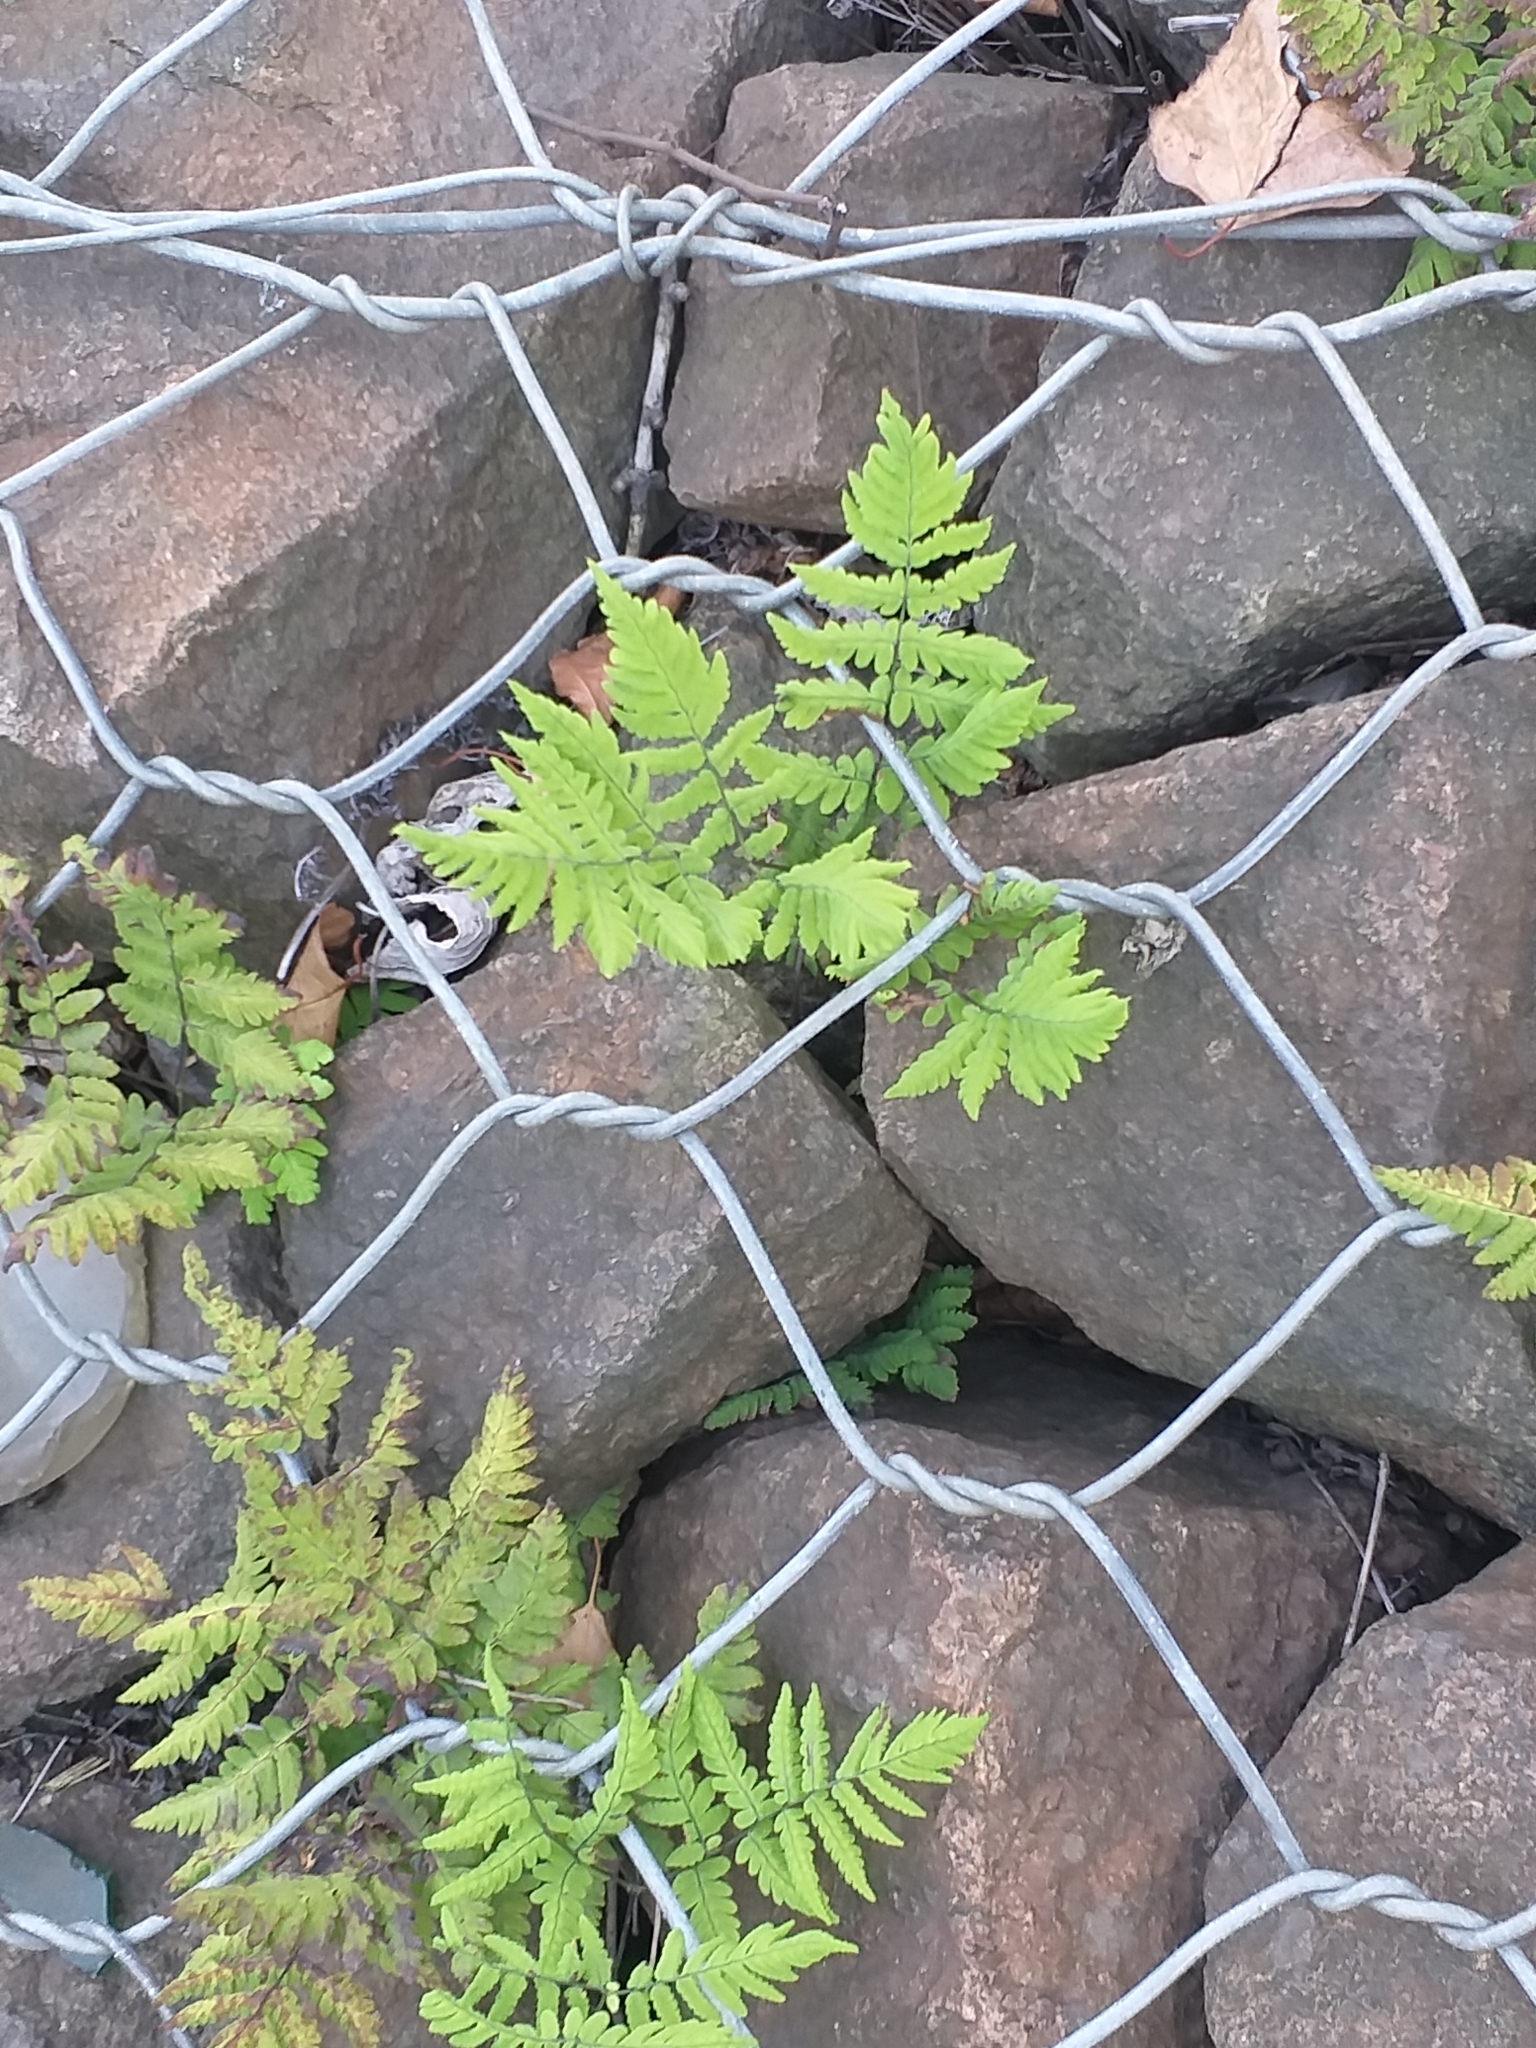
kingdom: Plantae
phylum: Tracheophyta
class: Polypodiopsida
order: Polypodiales
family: Cystopteridaceae
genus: Gymnocarpium
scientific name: Gymnocarpium dryopteris
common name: Oak fern
